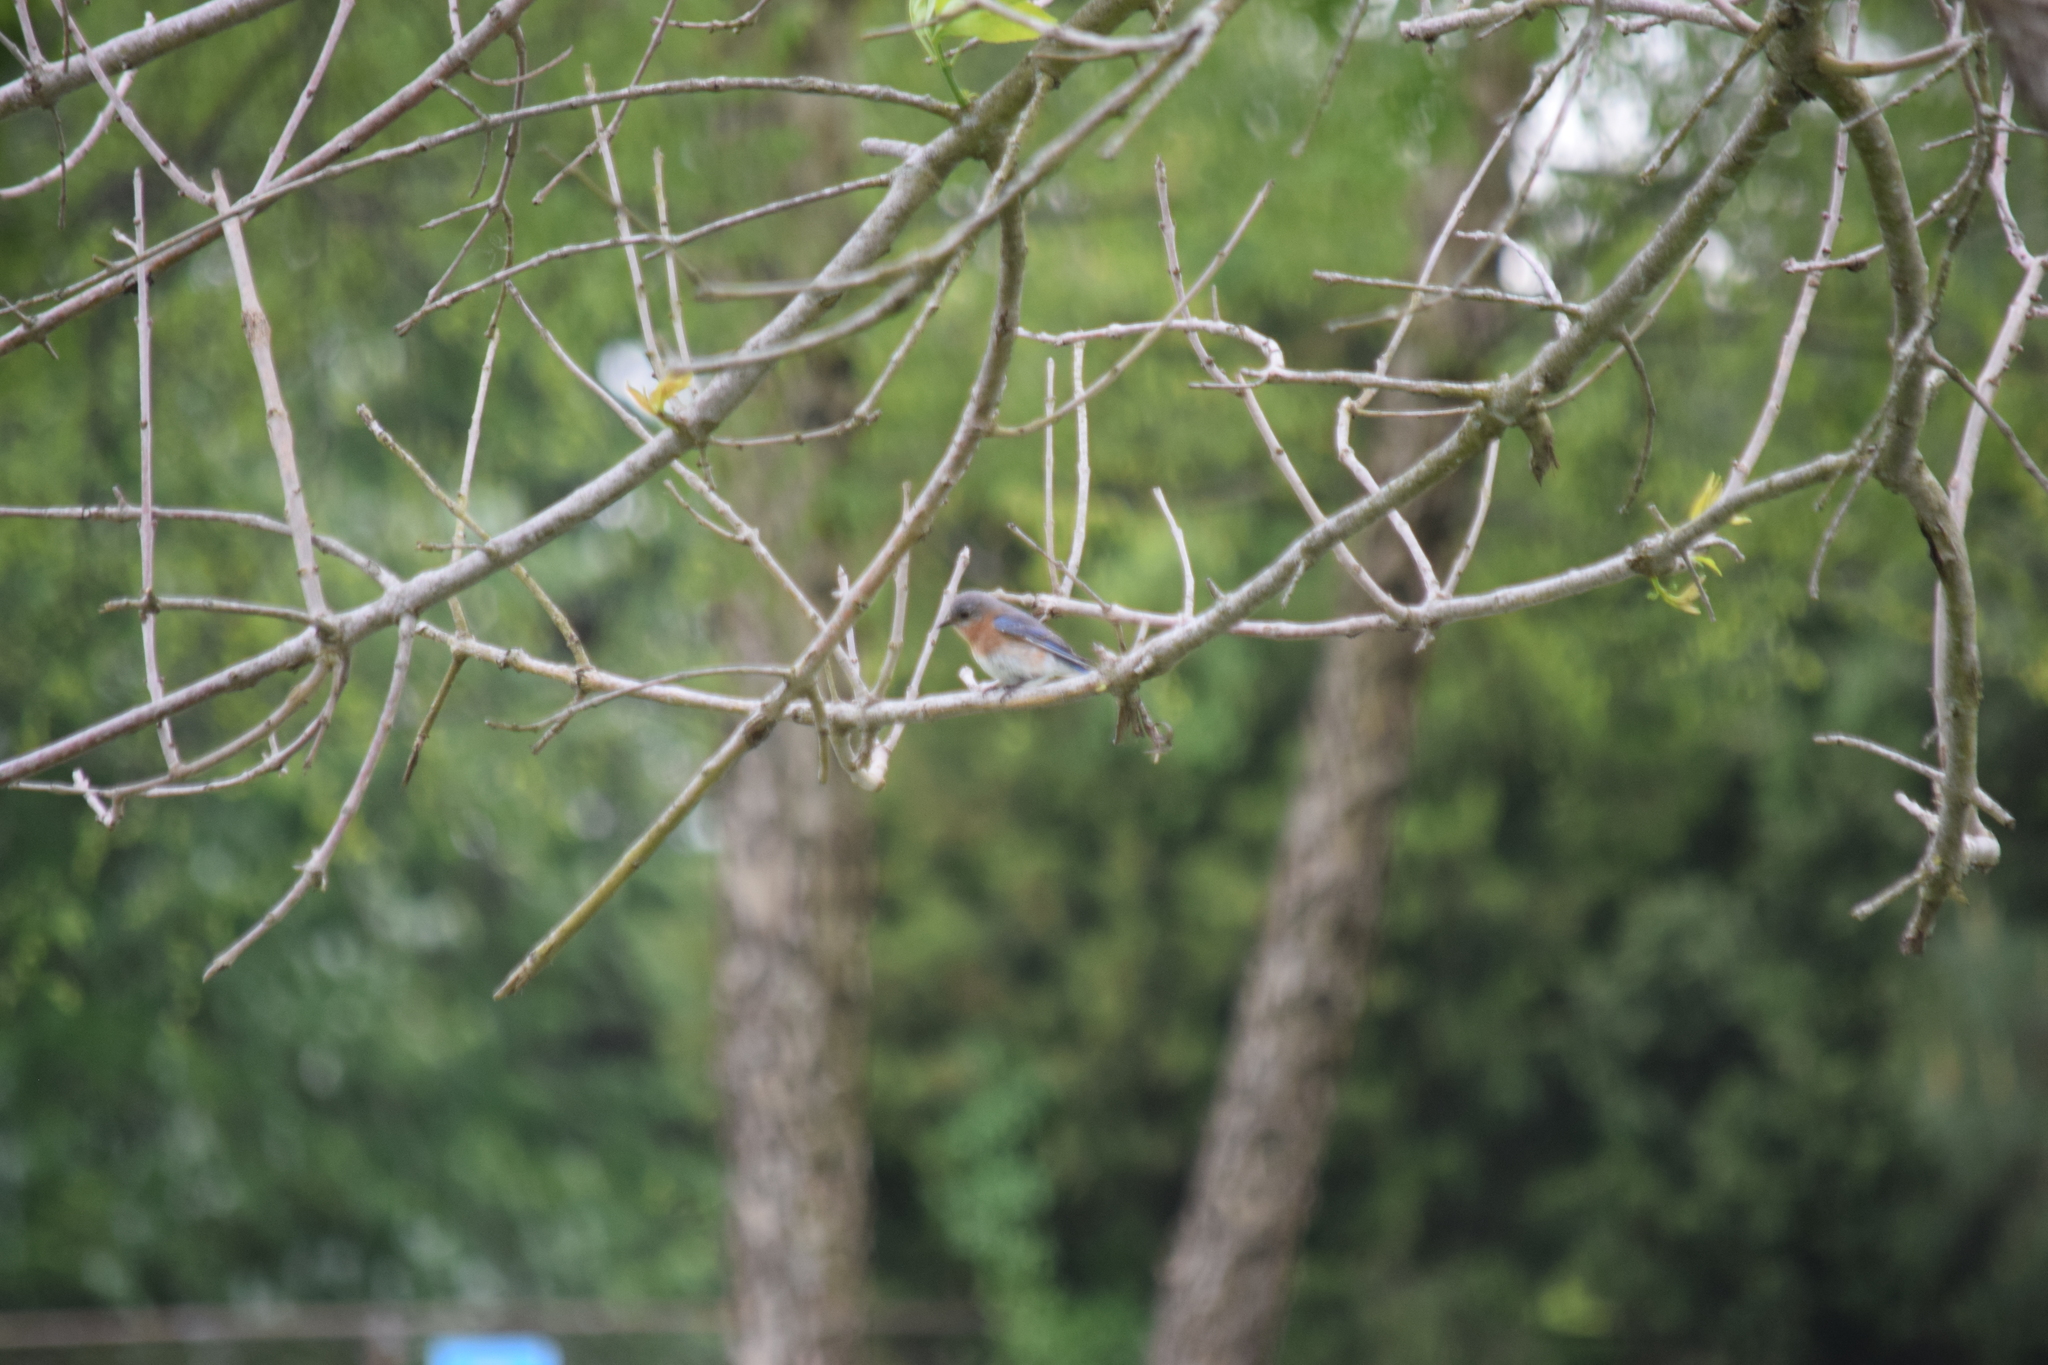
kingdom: Animalia
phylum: Chordata
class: Aves
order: Passeriformes
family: Turdidae
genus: Sialia
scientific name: Sialia sialis
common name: Eastern bluebird
